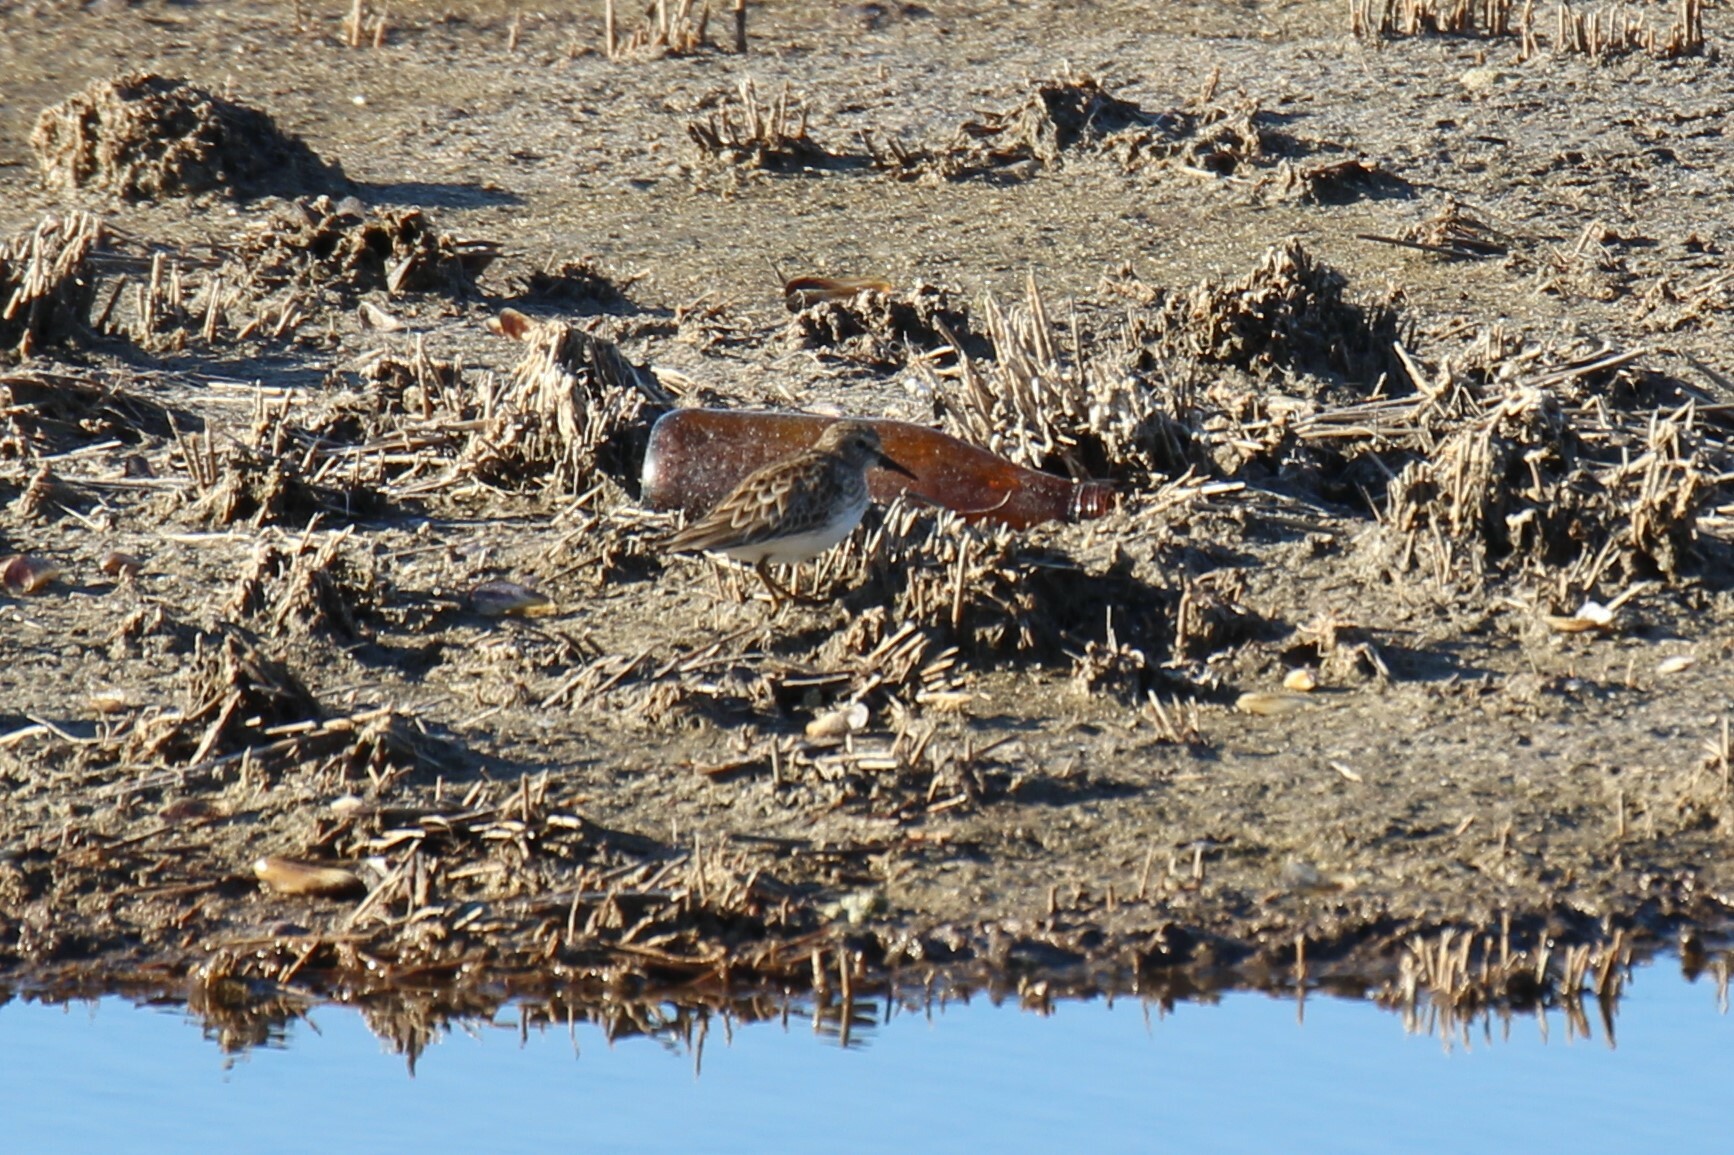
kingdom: Animalia
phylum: Chordata
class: Aves
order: Charadriiformes
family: Scolopacidae
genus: Calidris
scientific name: Calidris minutilla
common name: Least sandpiper
